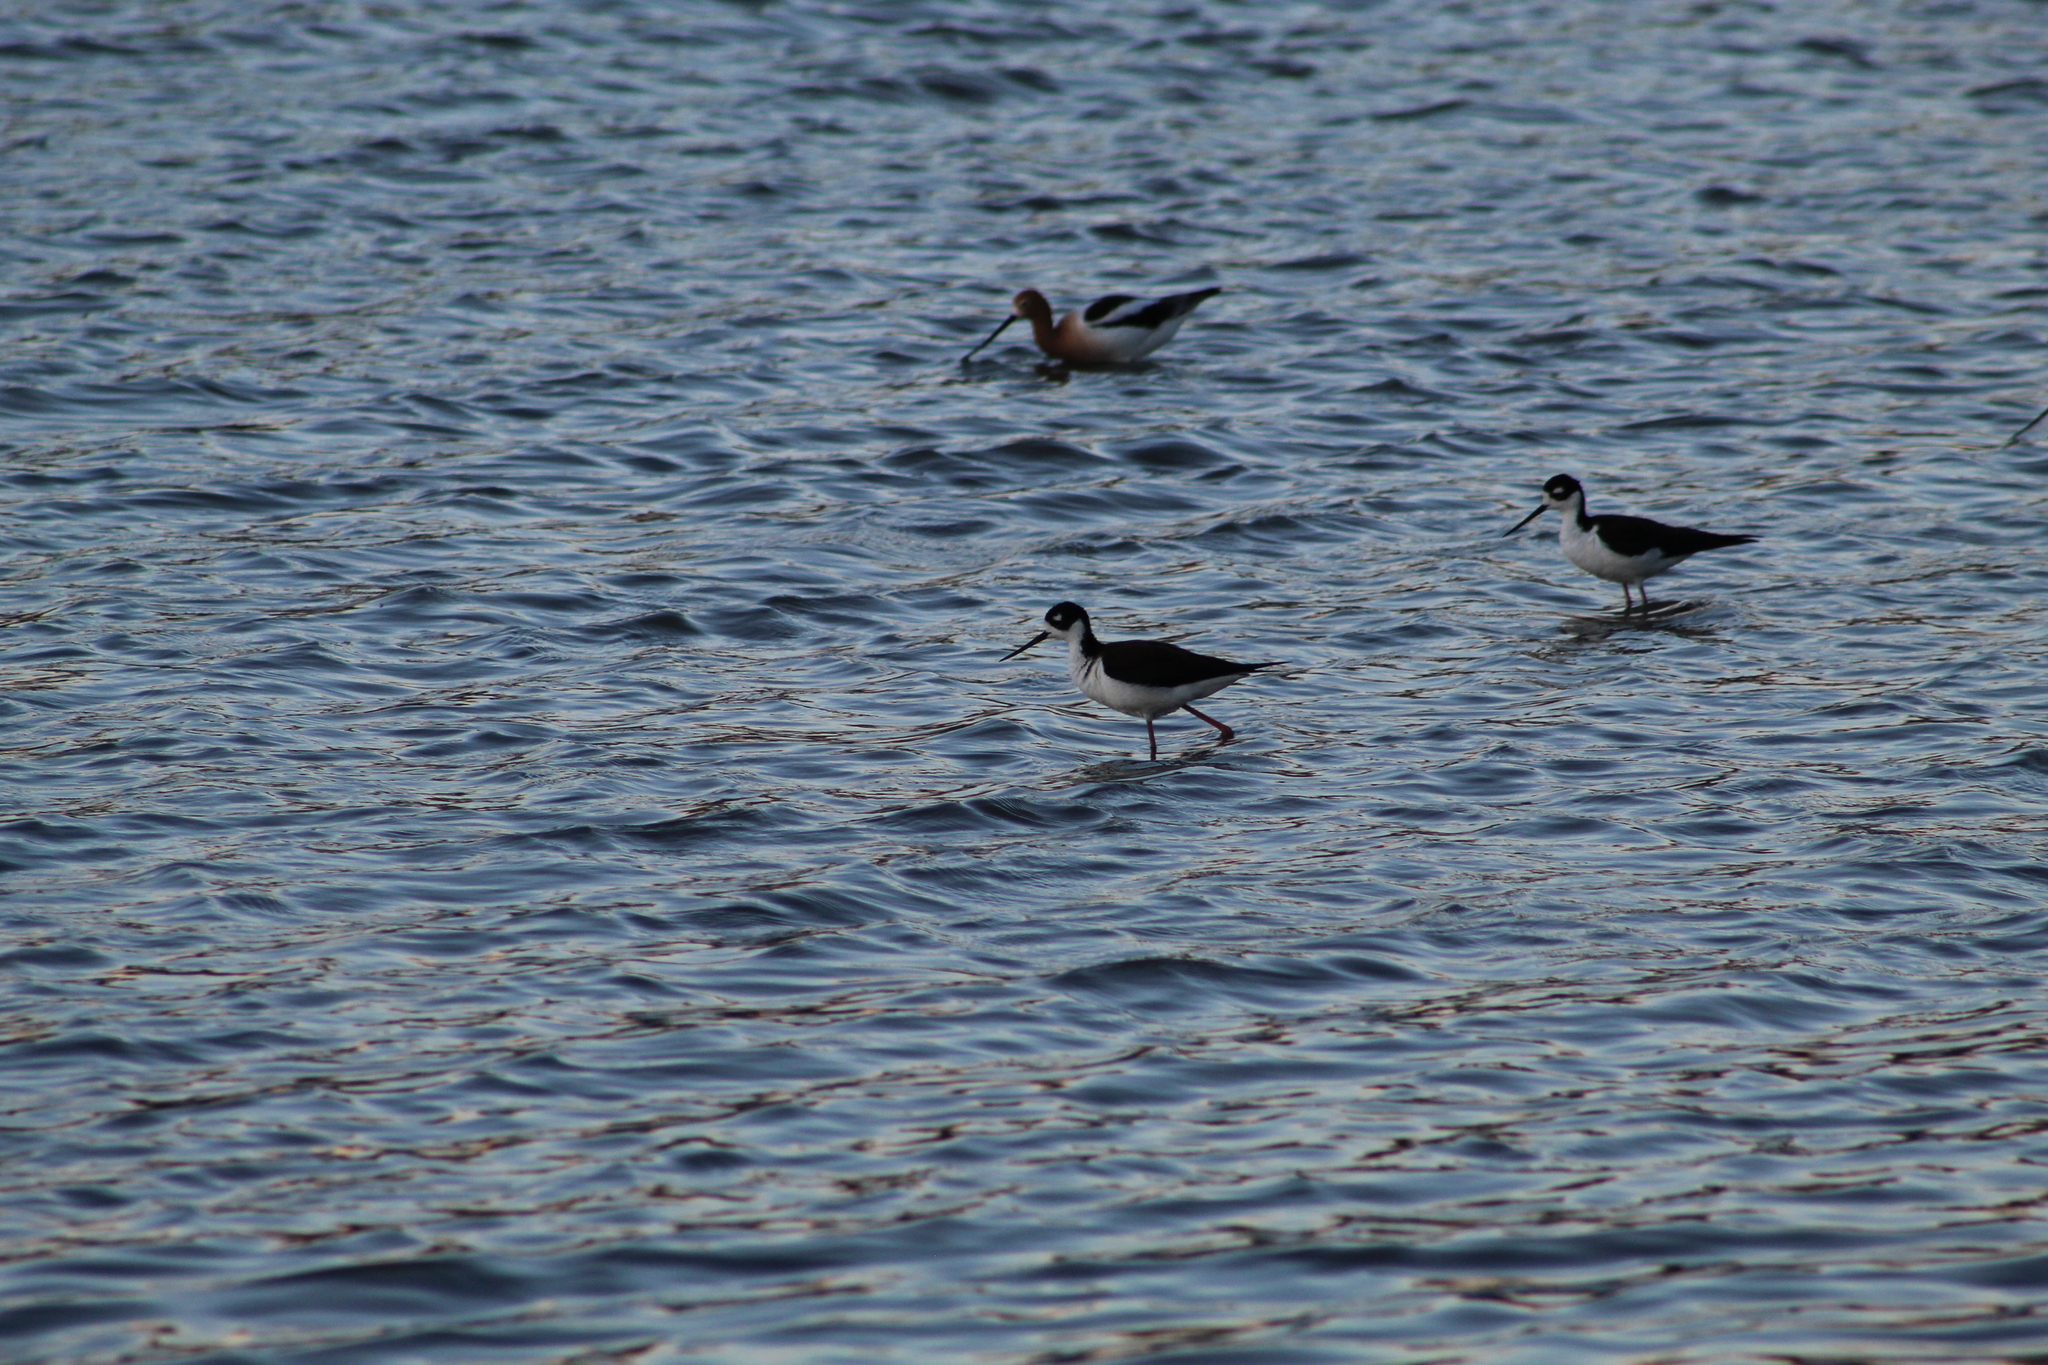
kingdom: Animalia
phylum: Chordata
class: Aves
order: Charadriiformes
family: Recurvirostridae
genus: Himantopus
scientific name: Himantopus mexicanus
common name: Black-necked stilt
